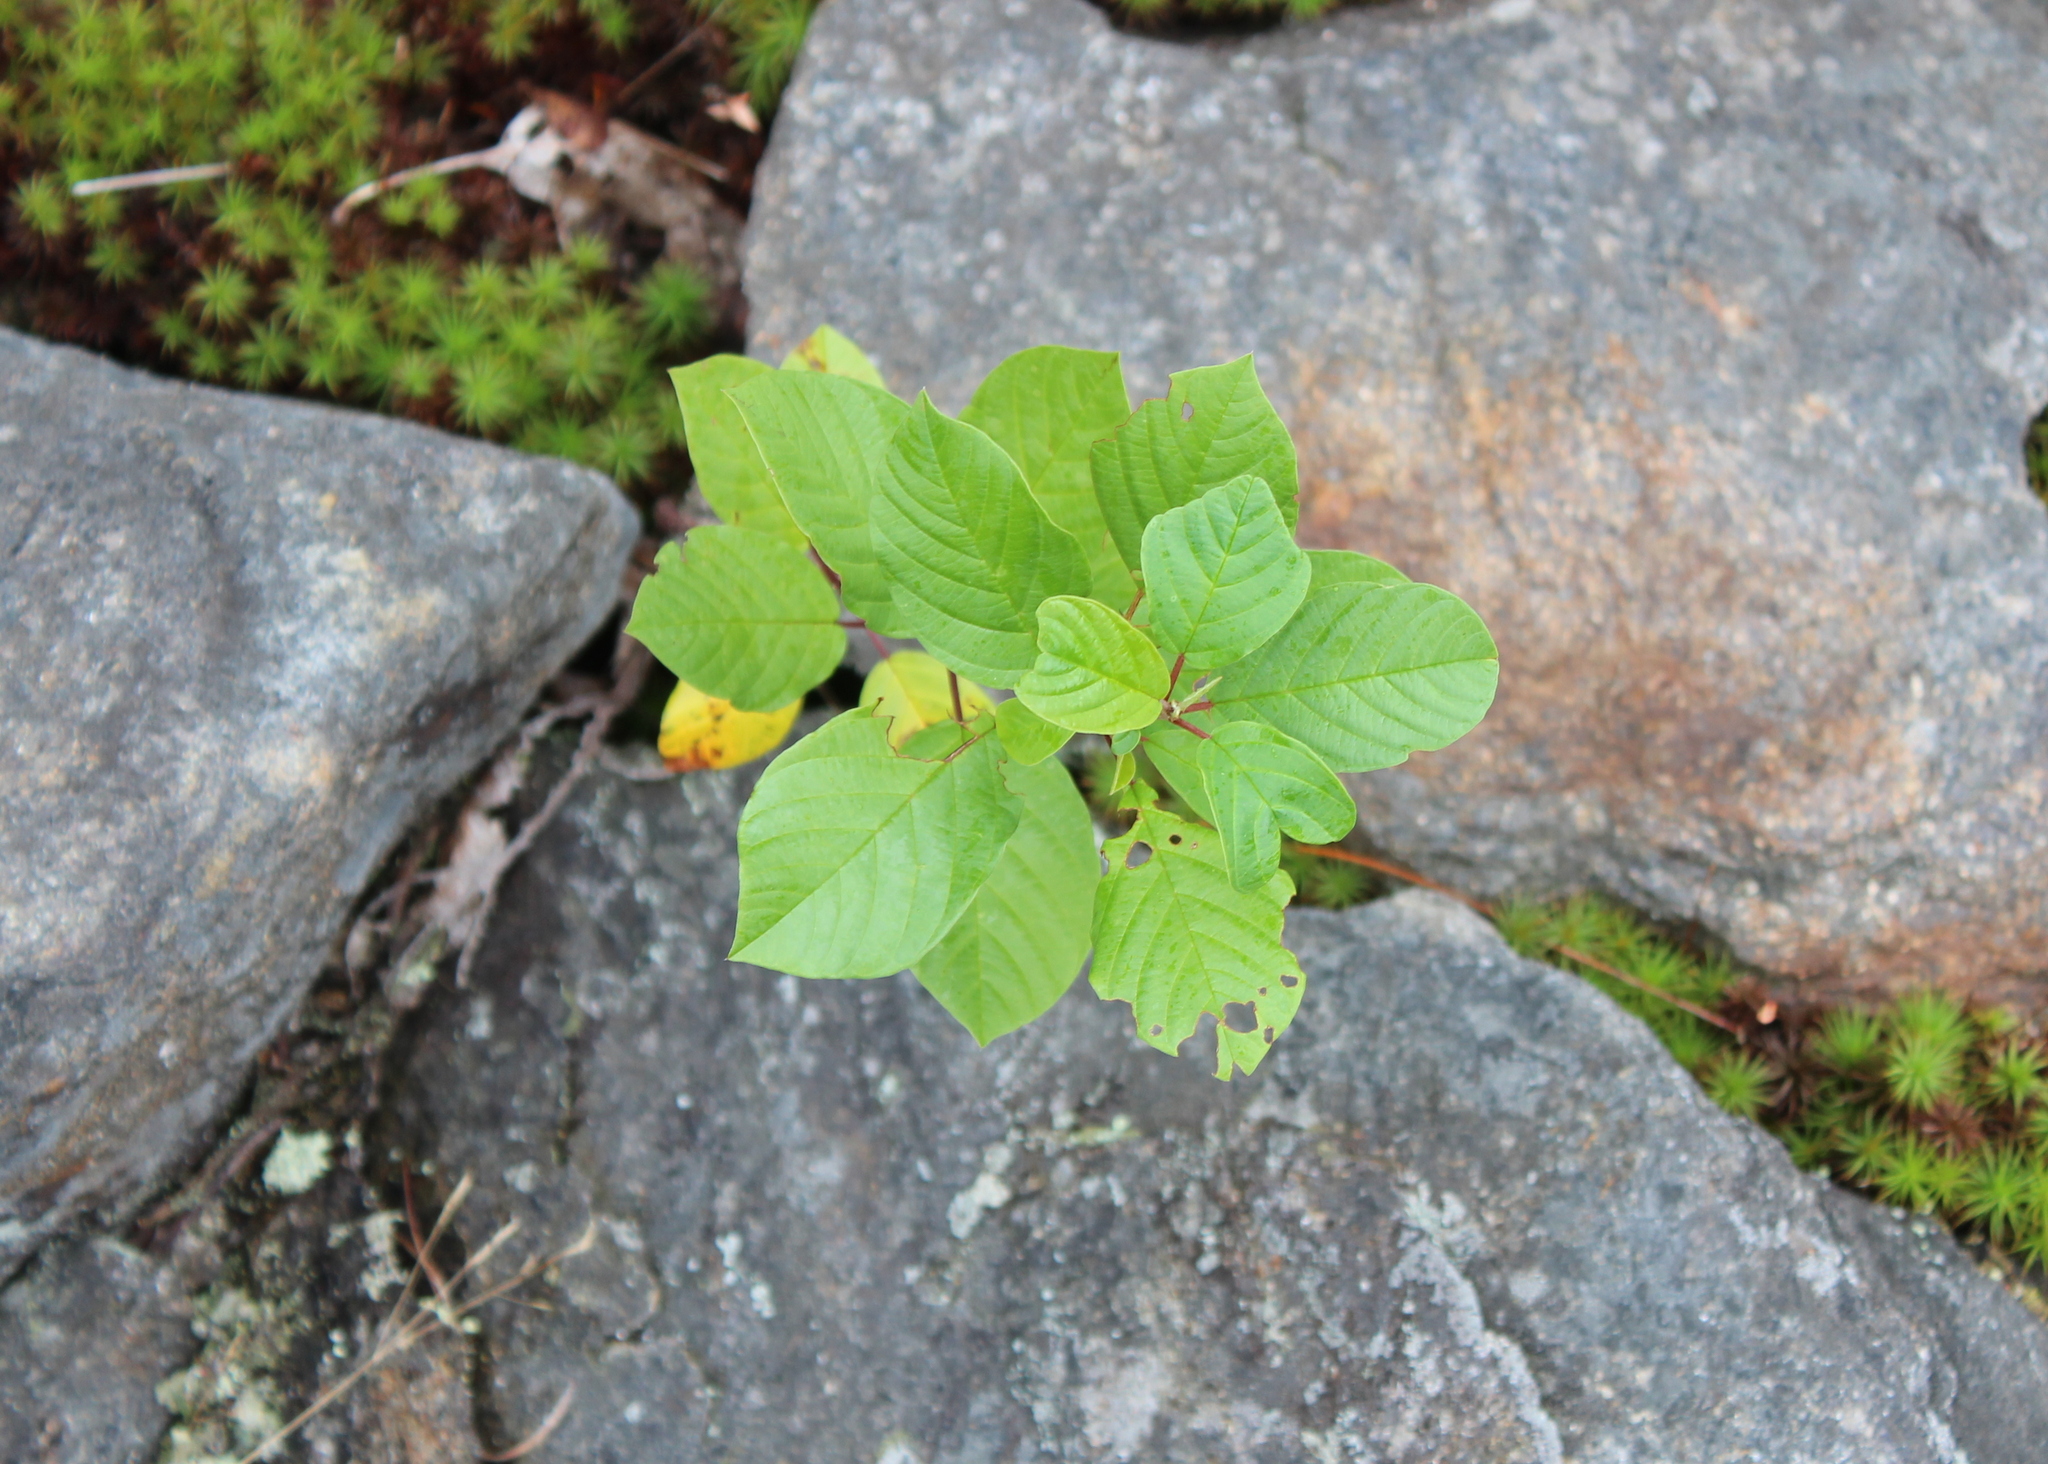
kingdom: Plantae
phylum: Tracheophyta
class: Magnoliopsida
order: Rosales
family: Rhamnaceae
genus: Frangula
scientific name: Frangula alnus
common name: Alder buckthorn
